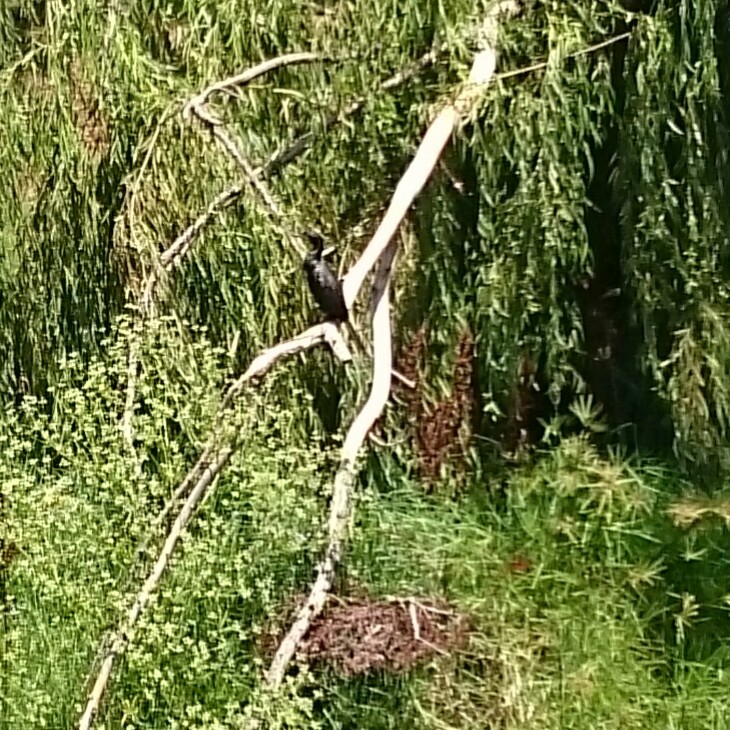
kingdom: Animalia
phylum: Chordata
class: Aves
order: Suliformes
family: Phalacrocoracidae
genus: Microcarbo
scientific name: Microcarbo africanus
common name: Long-tailed cormorant
